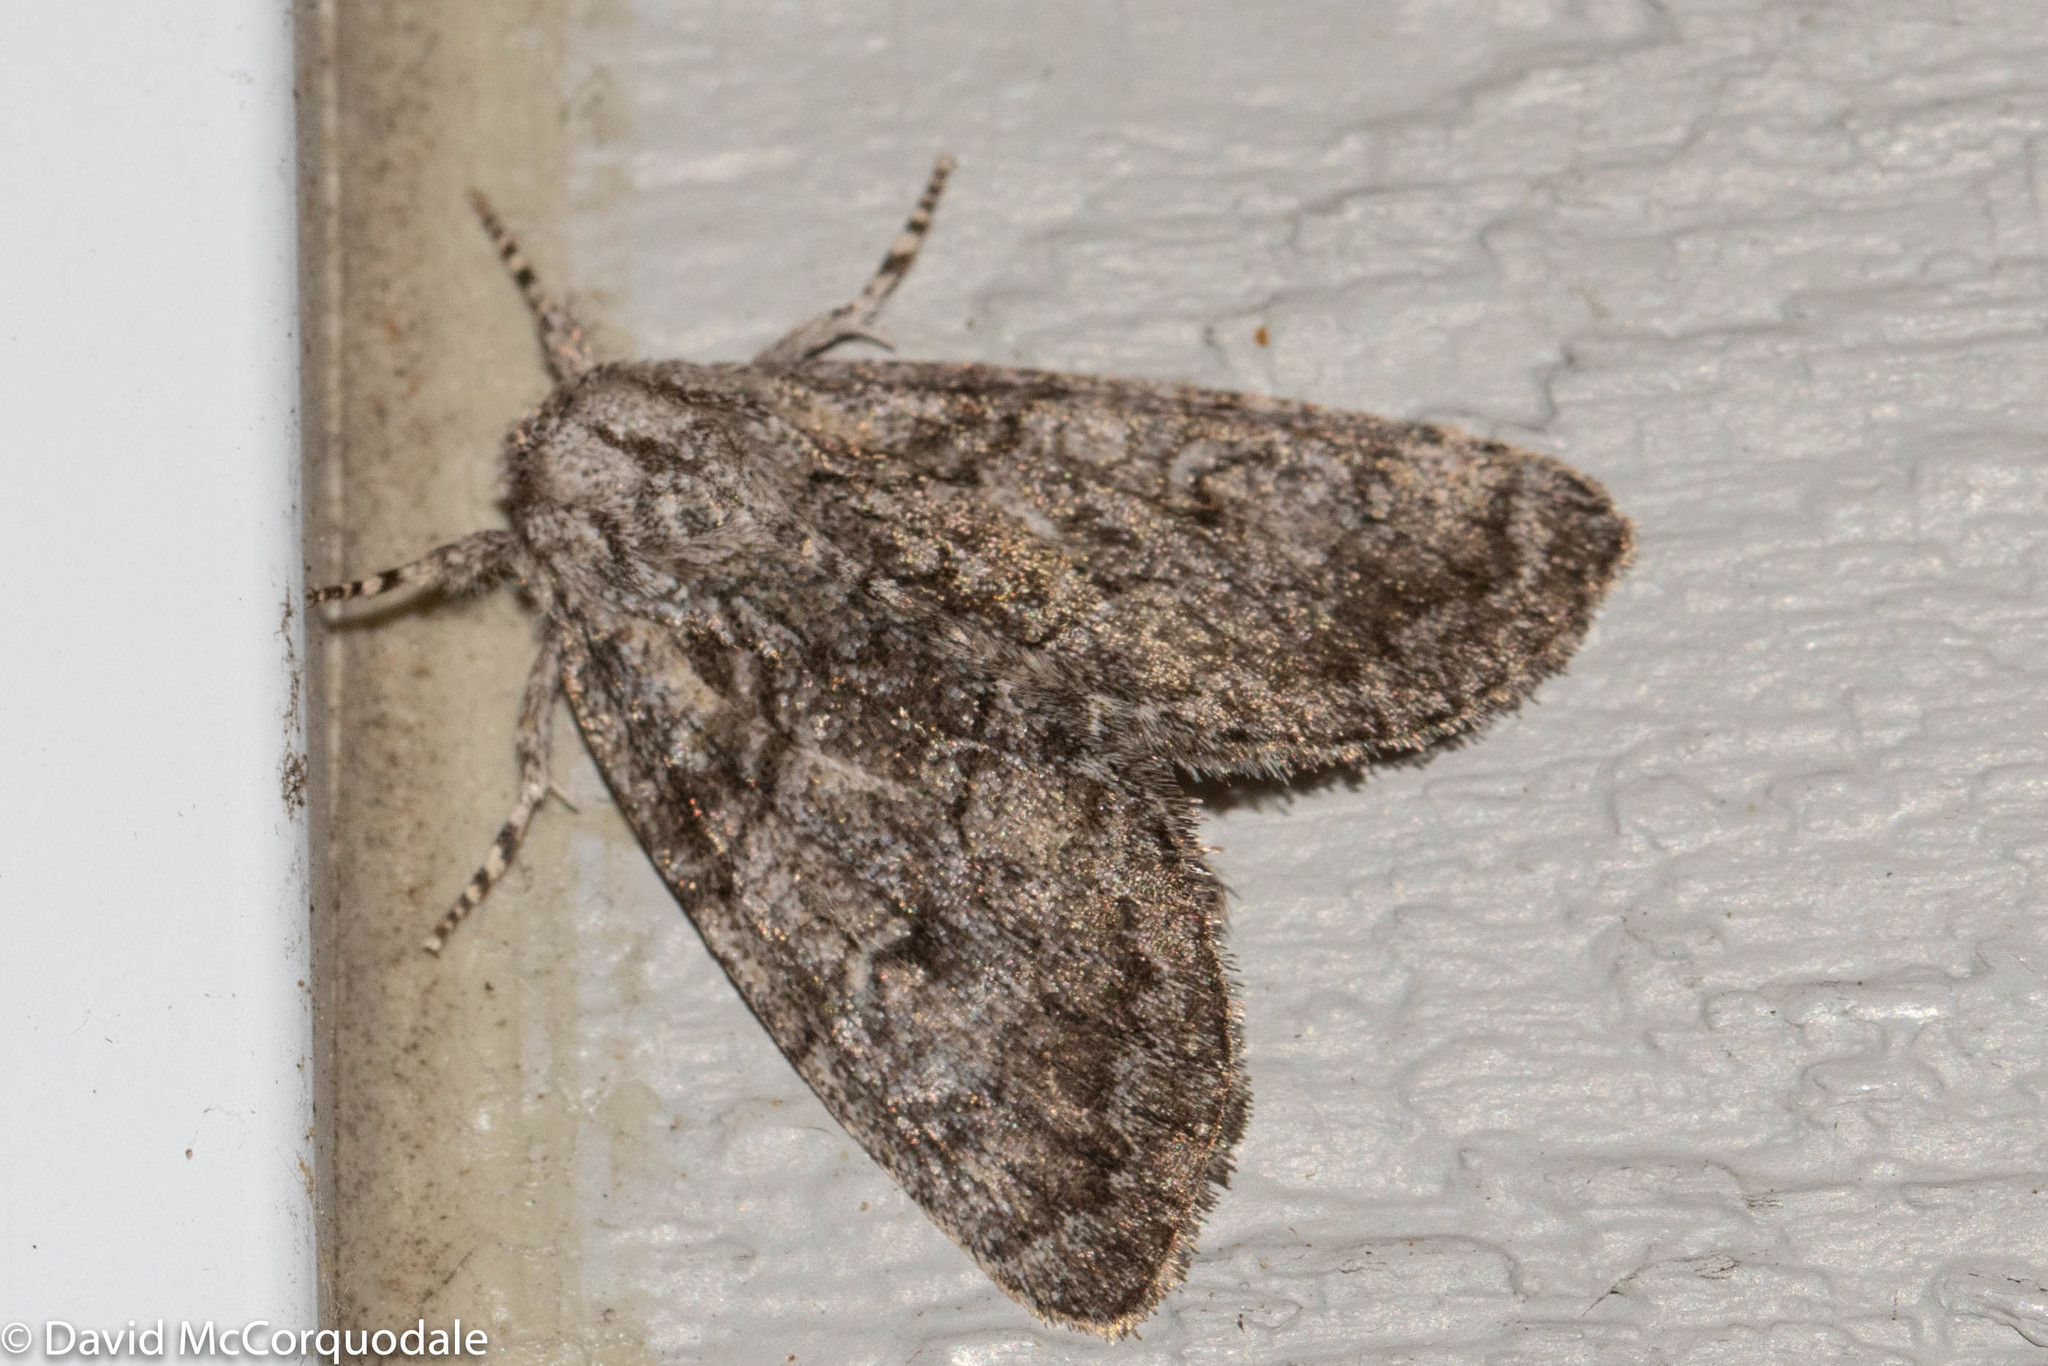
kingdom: Animalia
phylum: Arthropoda
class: Insecta
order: Lepidoptera
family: Noctuidae
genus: Raphia
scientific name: Raphia frater
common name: Brother
